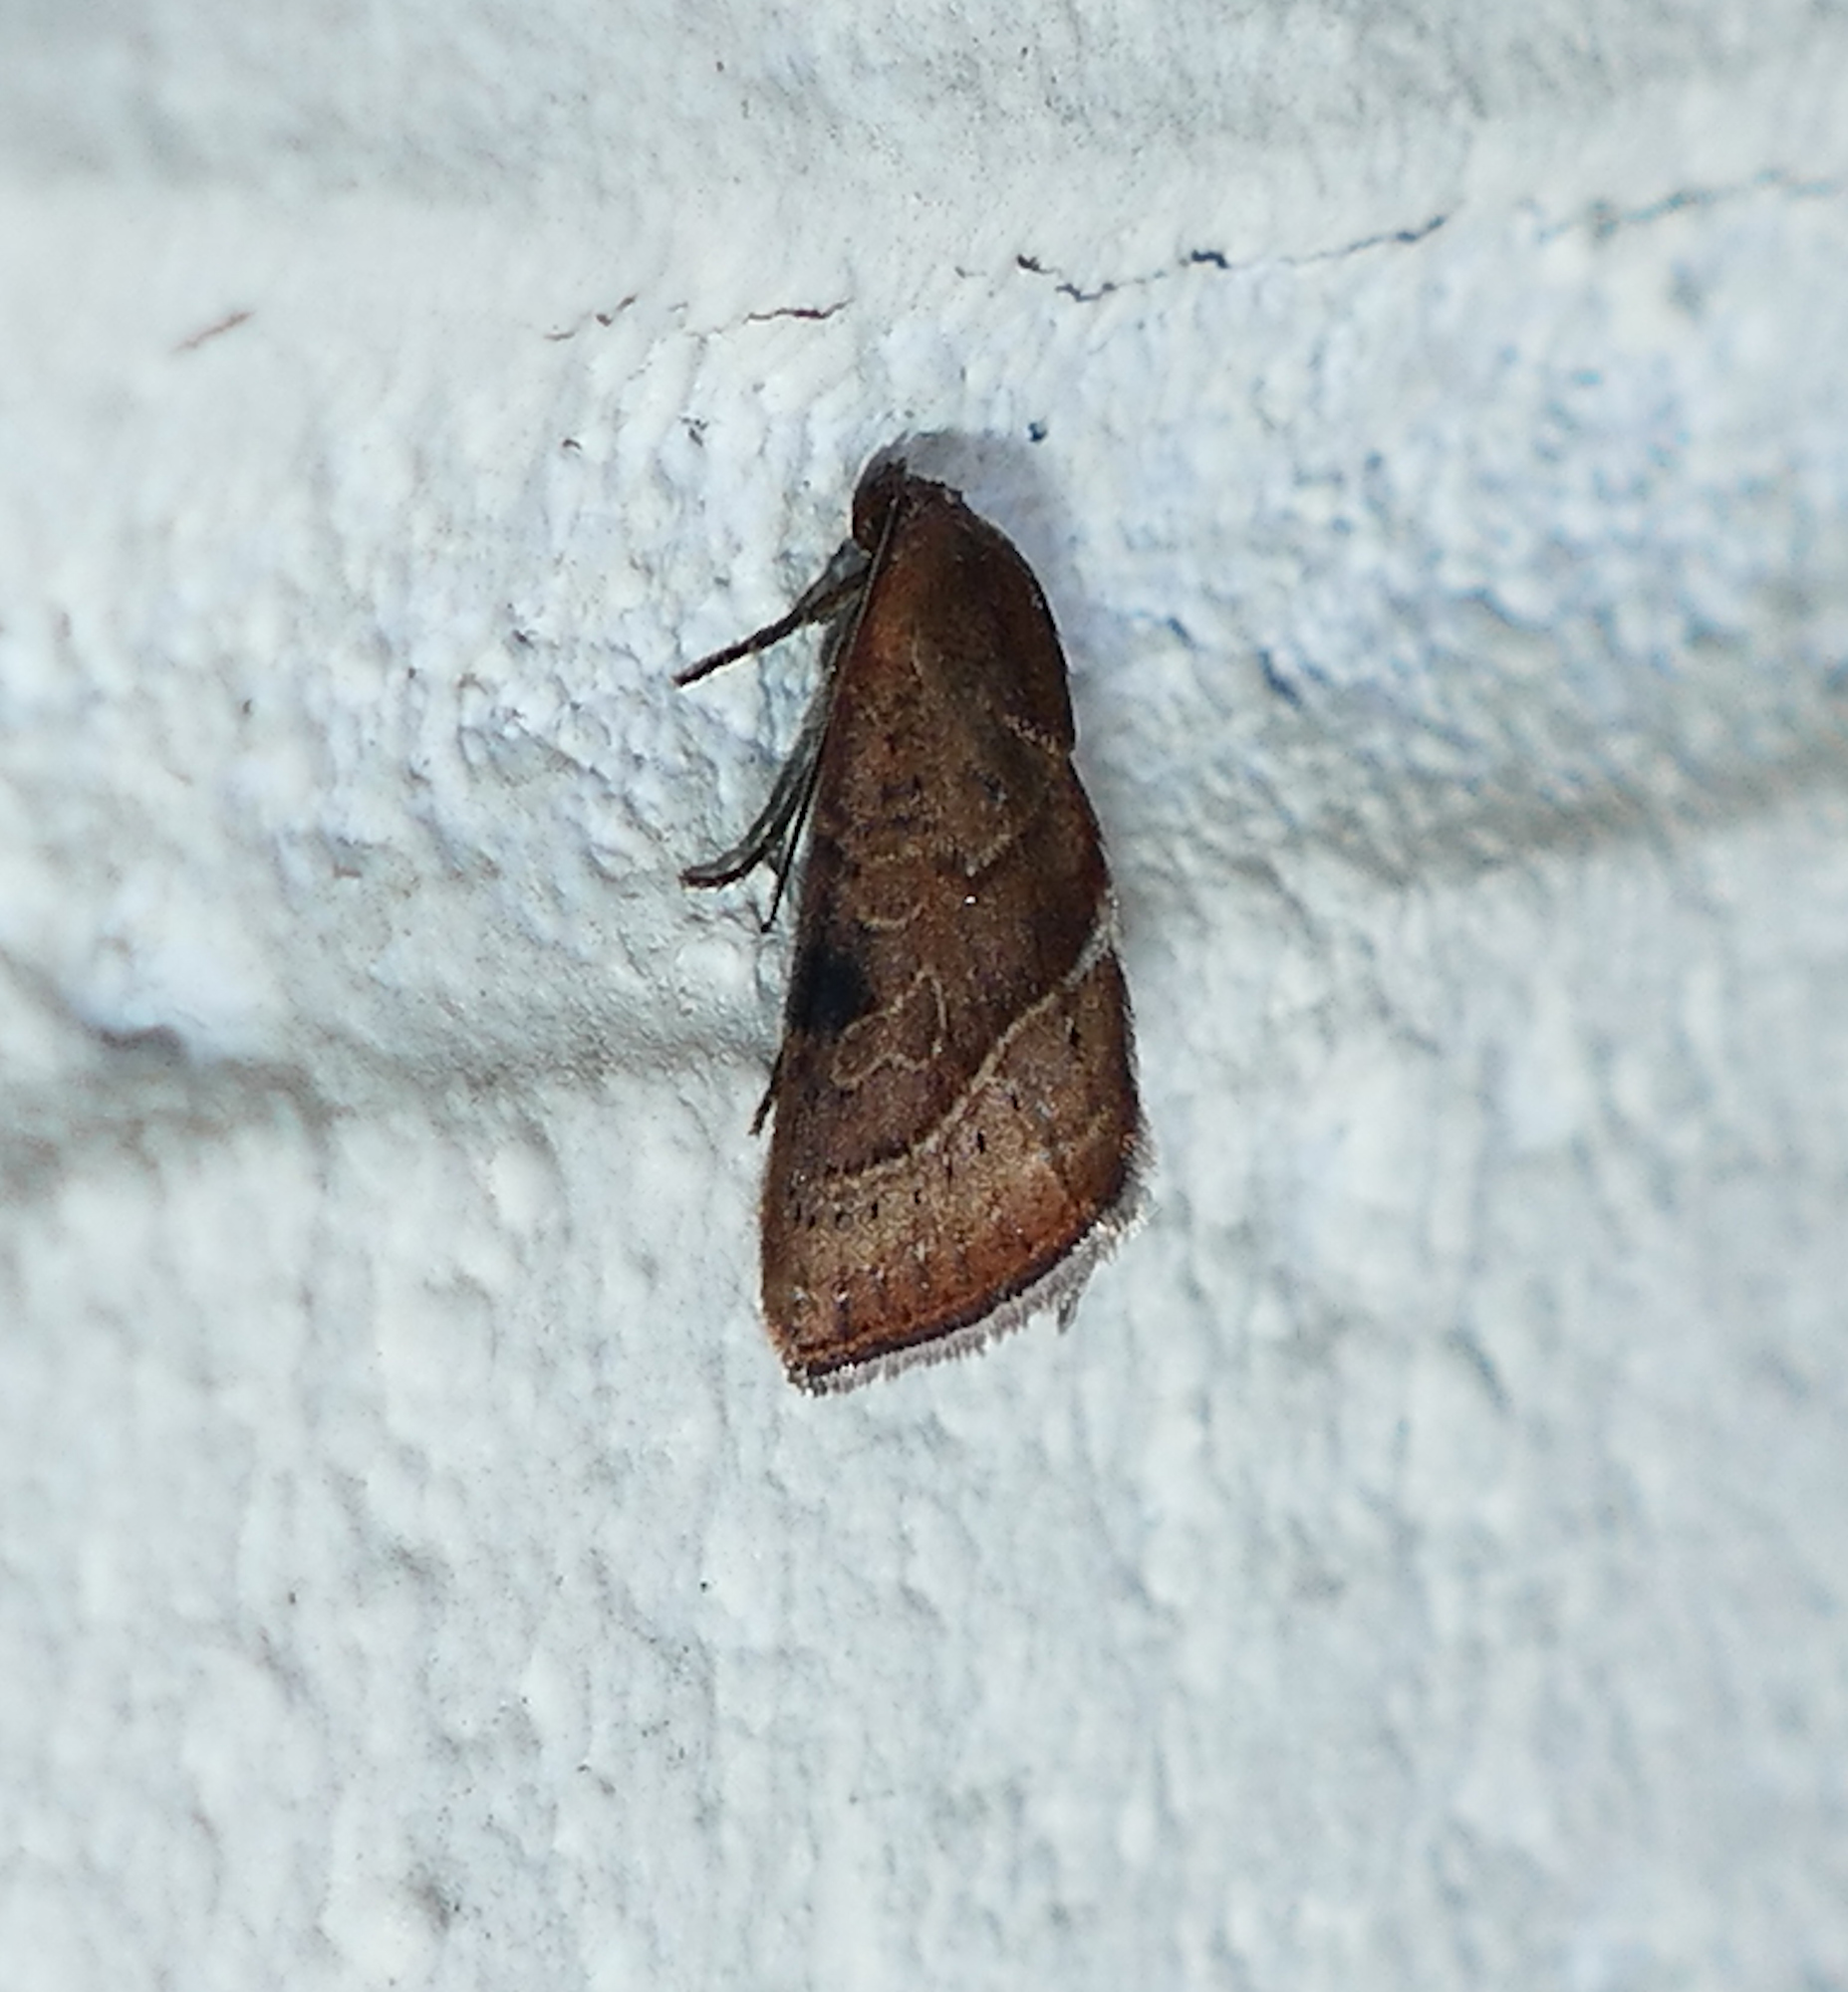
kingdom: Animalia
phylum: Arthropoda
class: Insecta
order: Lepidoptera
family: Noctuidae
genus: Galgula
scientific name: Galgula partita
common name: Wedgeling
